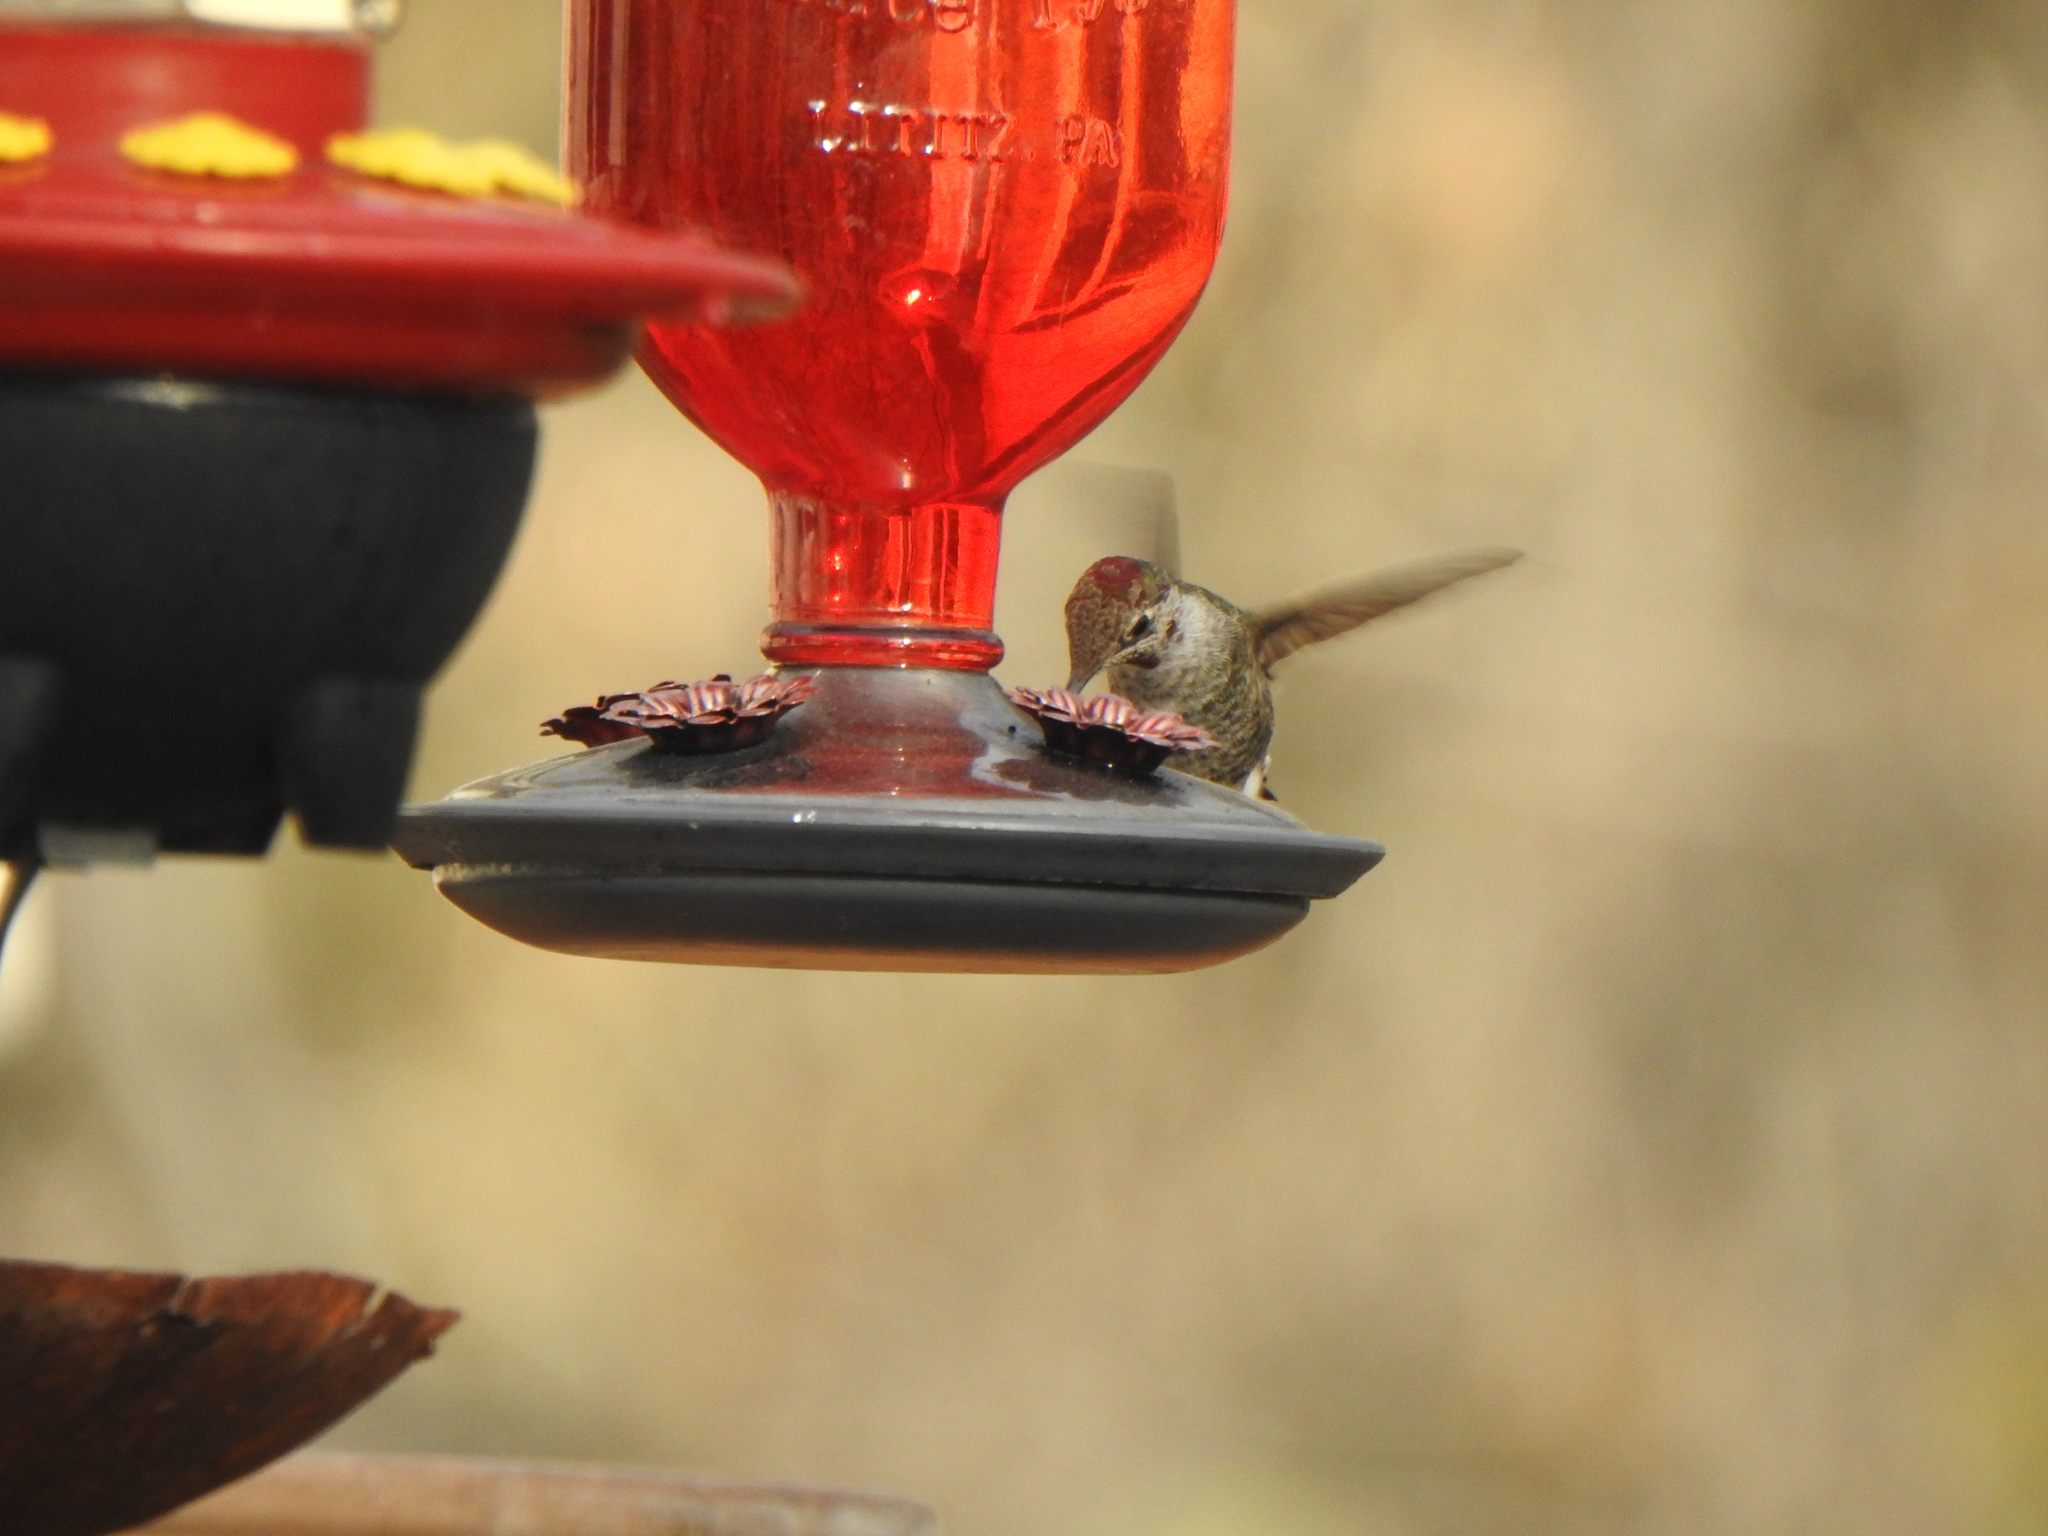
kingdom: Animalia
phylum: Chordata
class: Aves
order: Apodiformes
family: Trochilidae
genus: Calypte
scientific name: Calypte anna
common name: Anna's hummingbird
